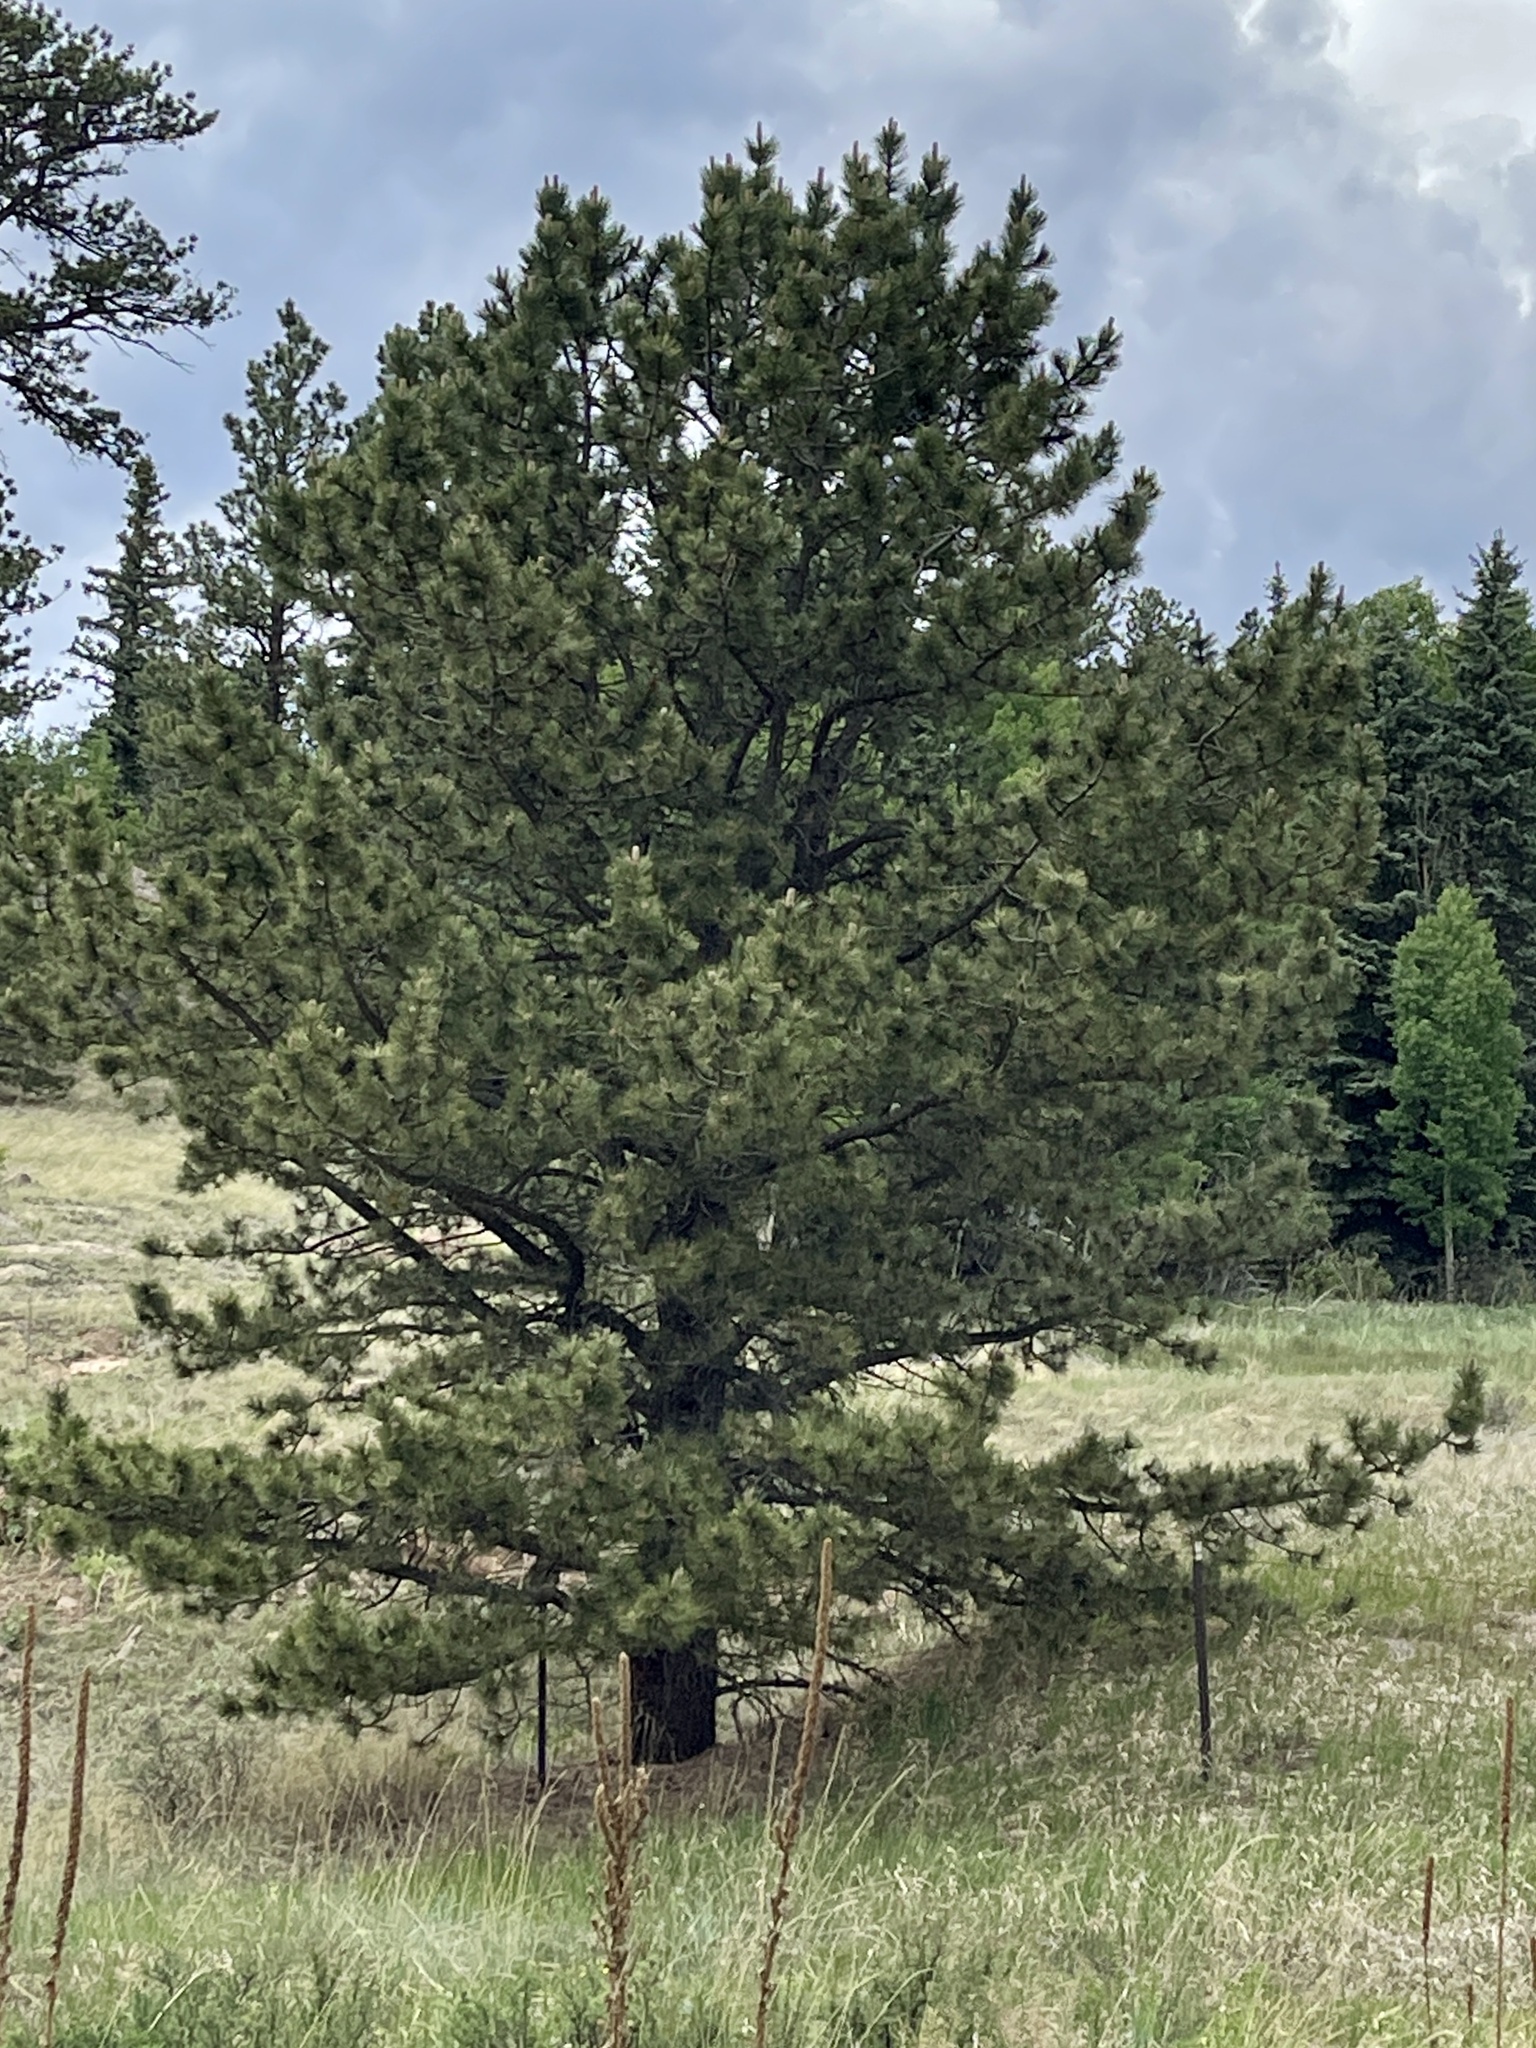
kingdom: Plantae
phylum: Tracheophyta
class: Pinopsida
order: Pinales
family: Pinaceae
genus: Pinus
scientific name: Pinus ponderosa
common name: Western yellow-pine
